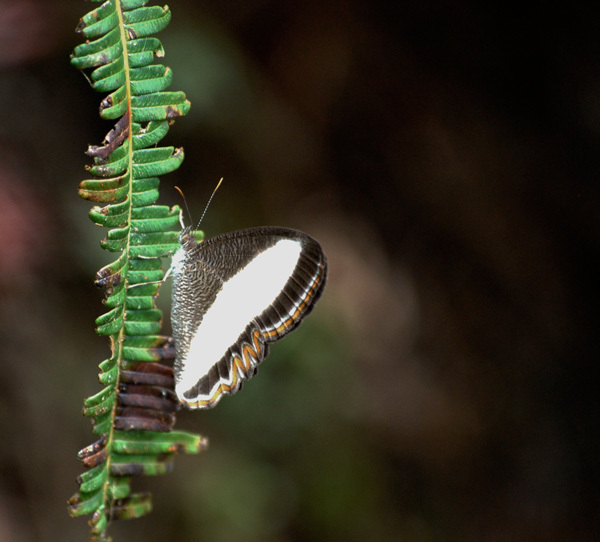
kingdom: Animalia
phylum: Arthropoda
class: Insecta
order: Lepidoptera
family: Nymphalidae
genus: Oressinoma
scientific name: Oressinoma typhla
